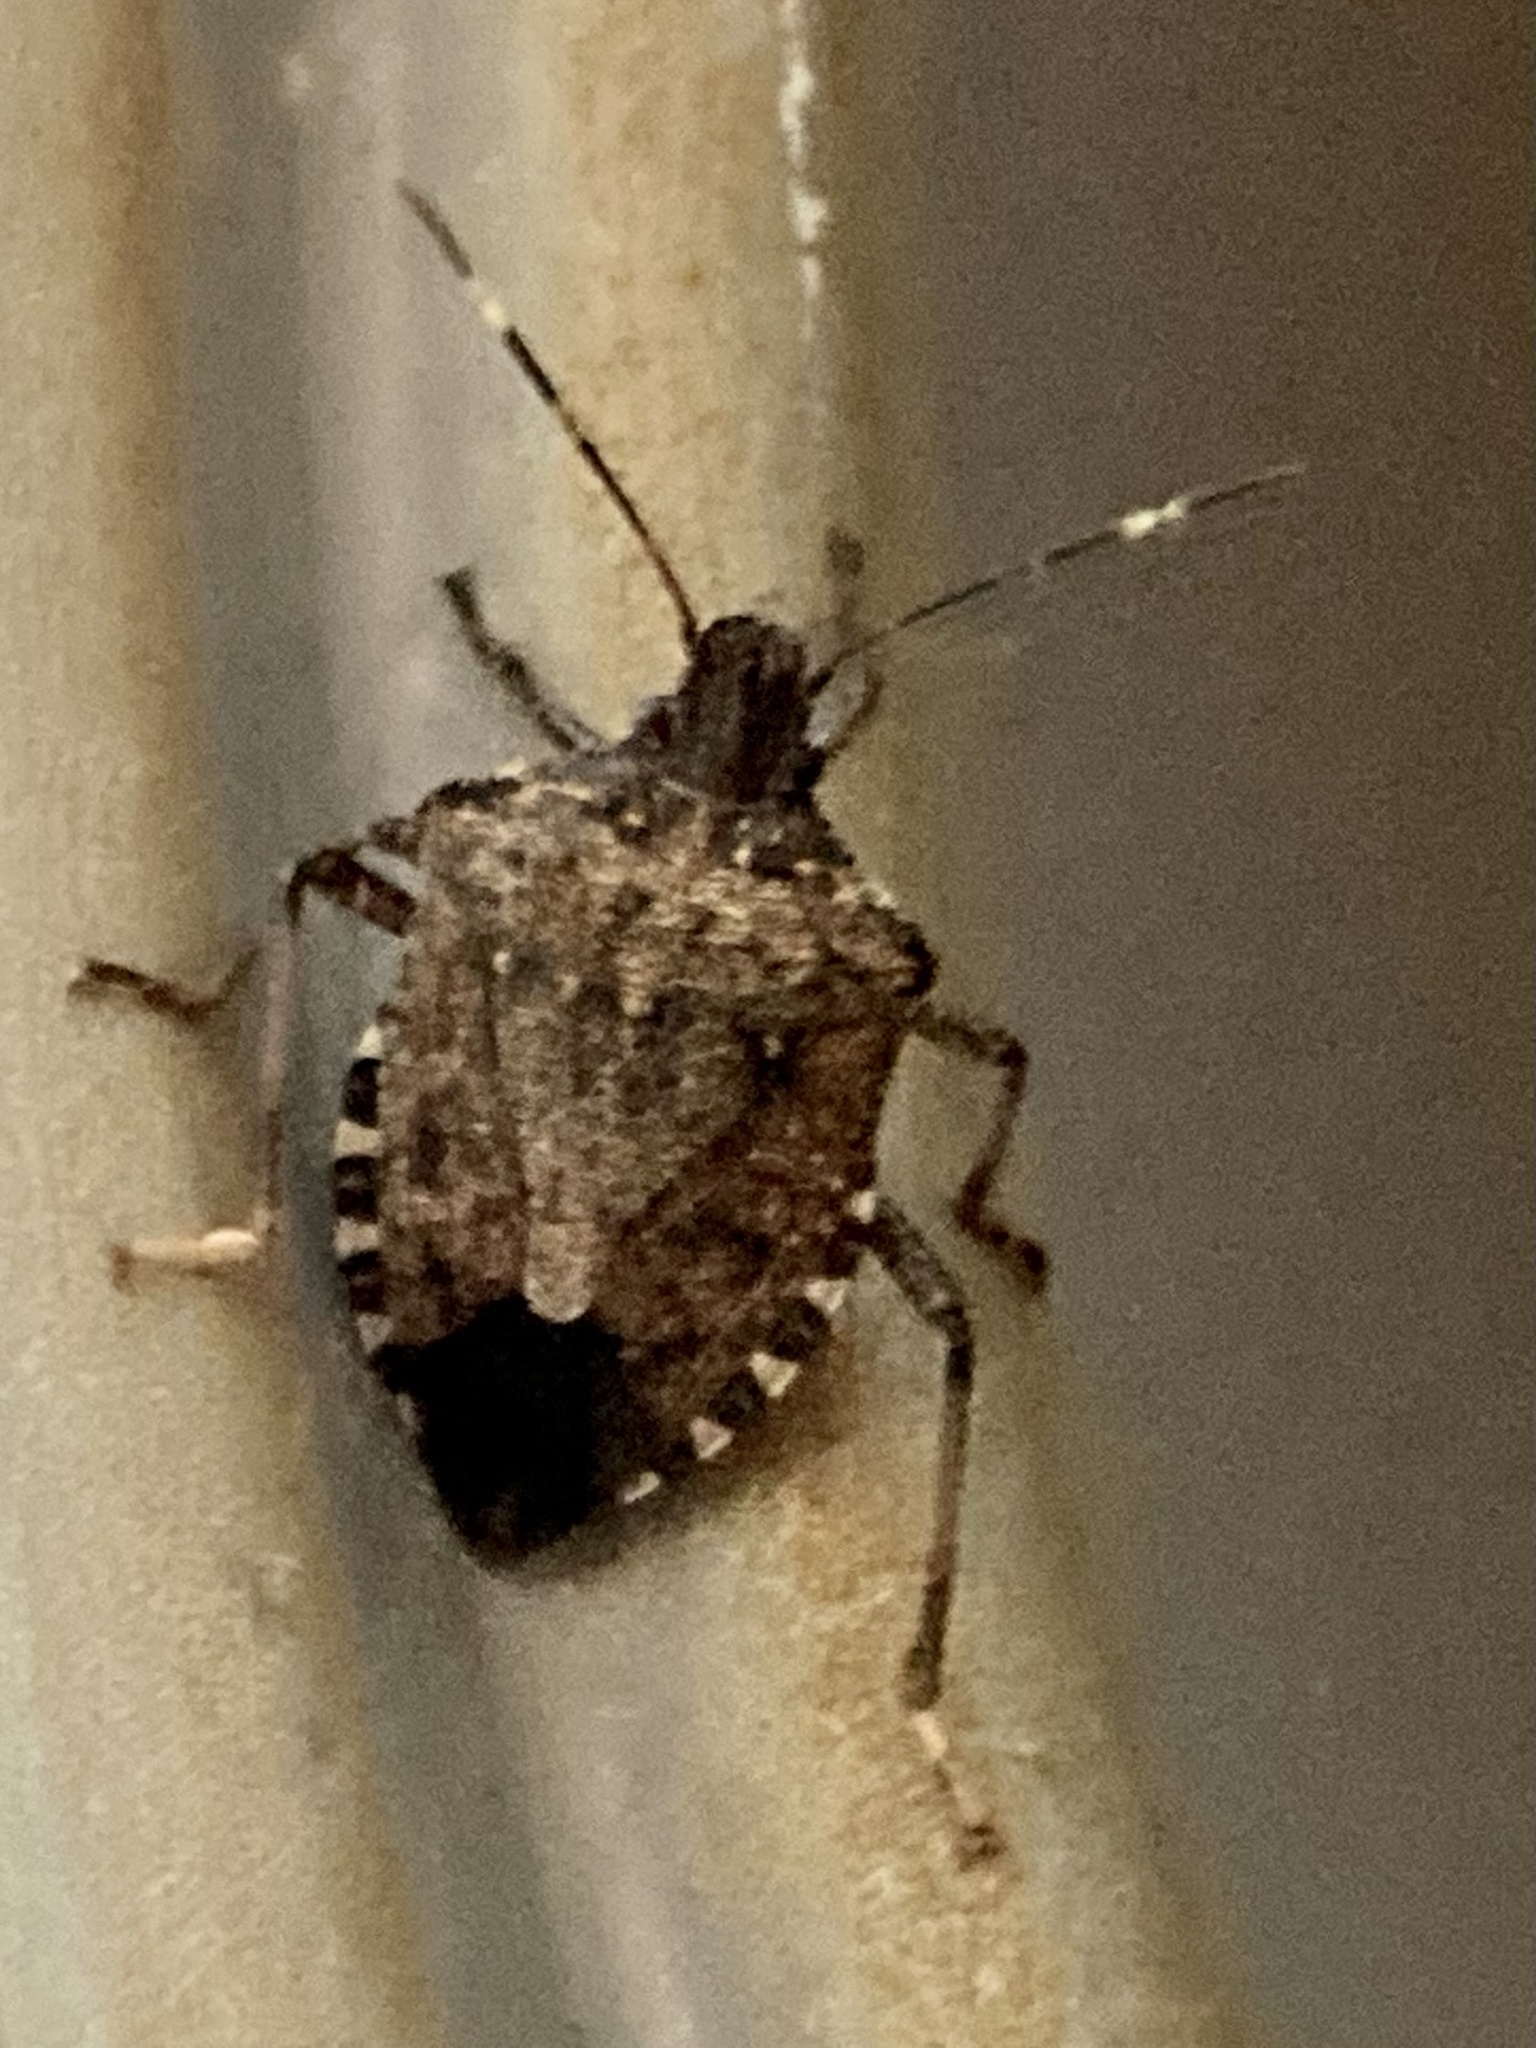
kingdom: Animalia
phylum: Arthropoda
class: Insecta
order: Hemiptera
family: Pentatomidae
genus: Halyomorpha
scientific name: Halyomorpha halys
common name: Brown marmorated stink bug
